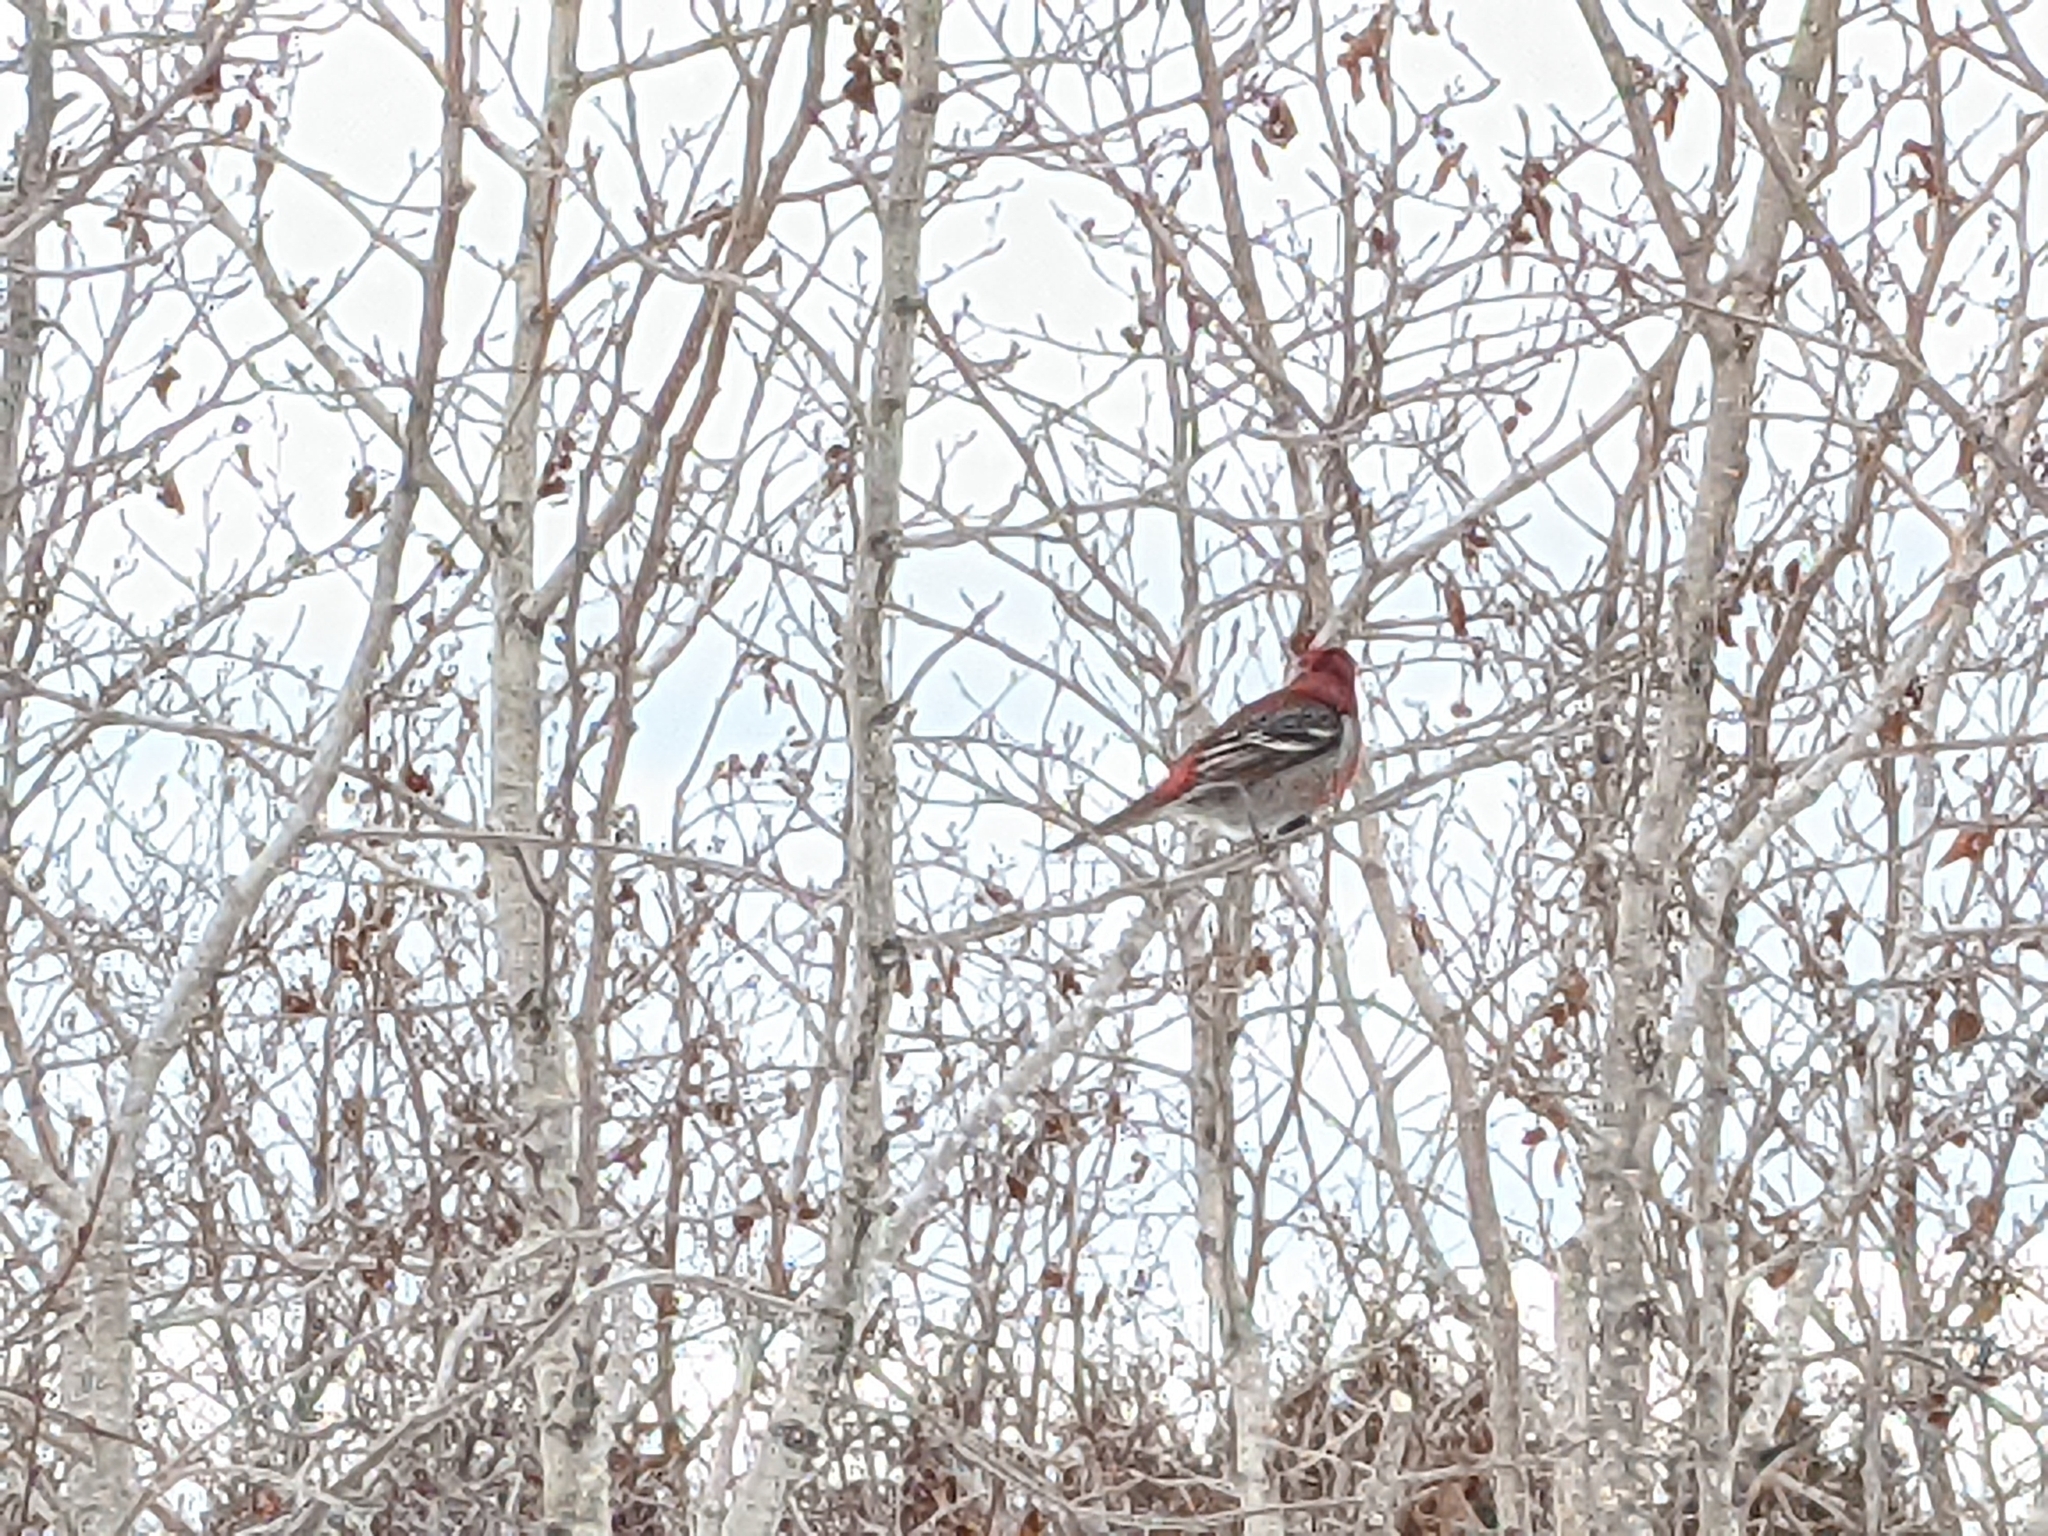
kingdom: Animalia
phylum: Chordata
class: Aves
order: Passeriformes
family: Fringillidae
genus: Pinicola
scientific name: Pinicola enucleator
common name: Pine grosbeak
